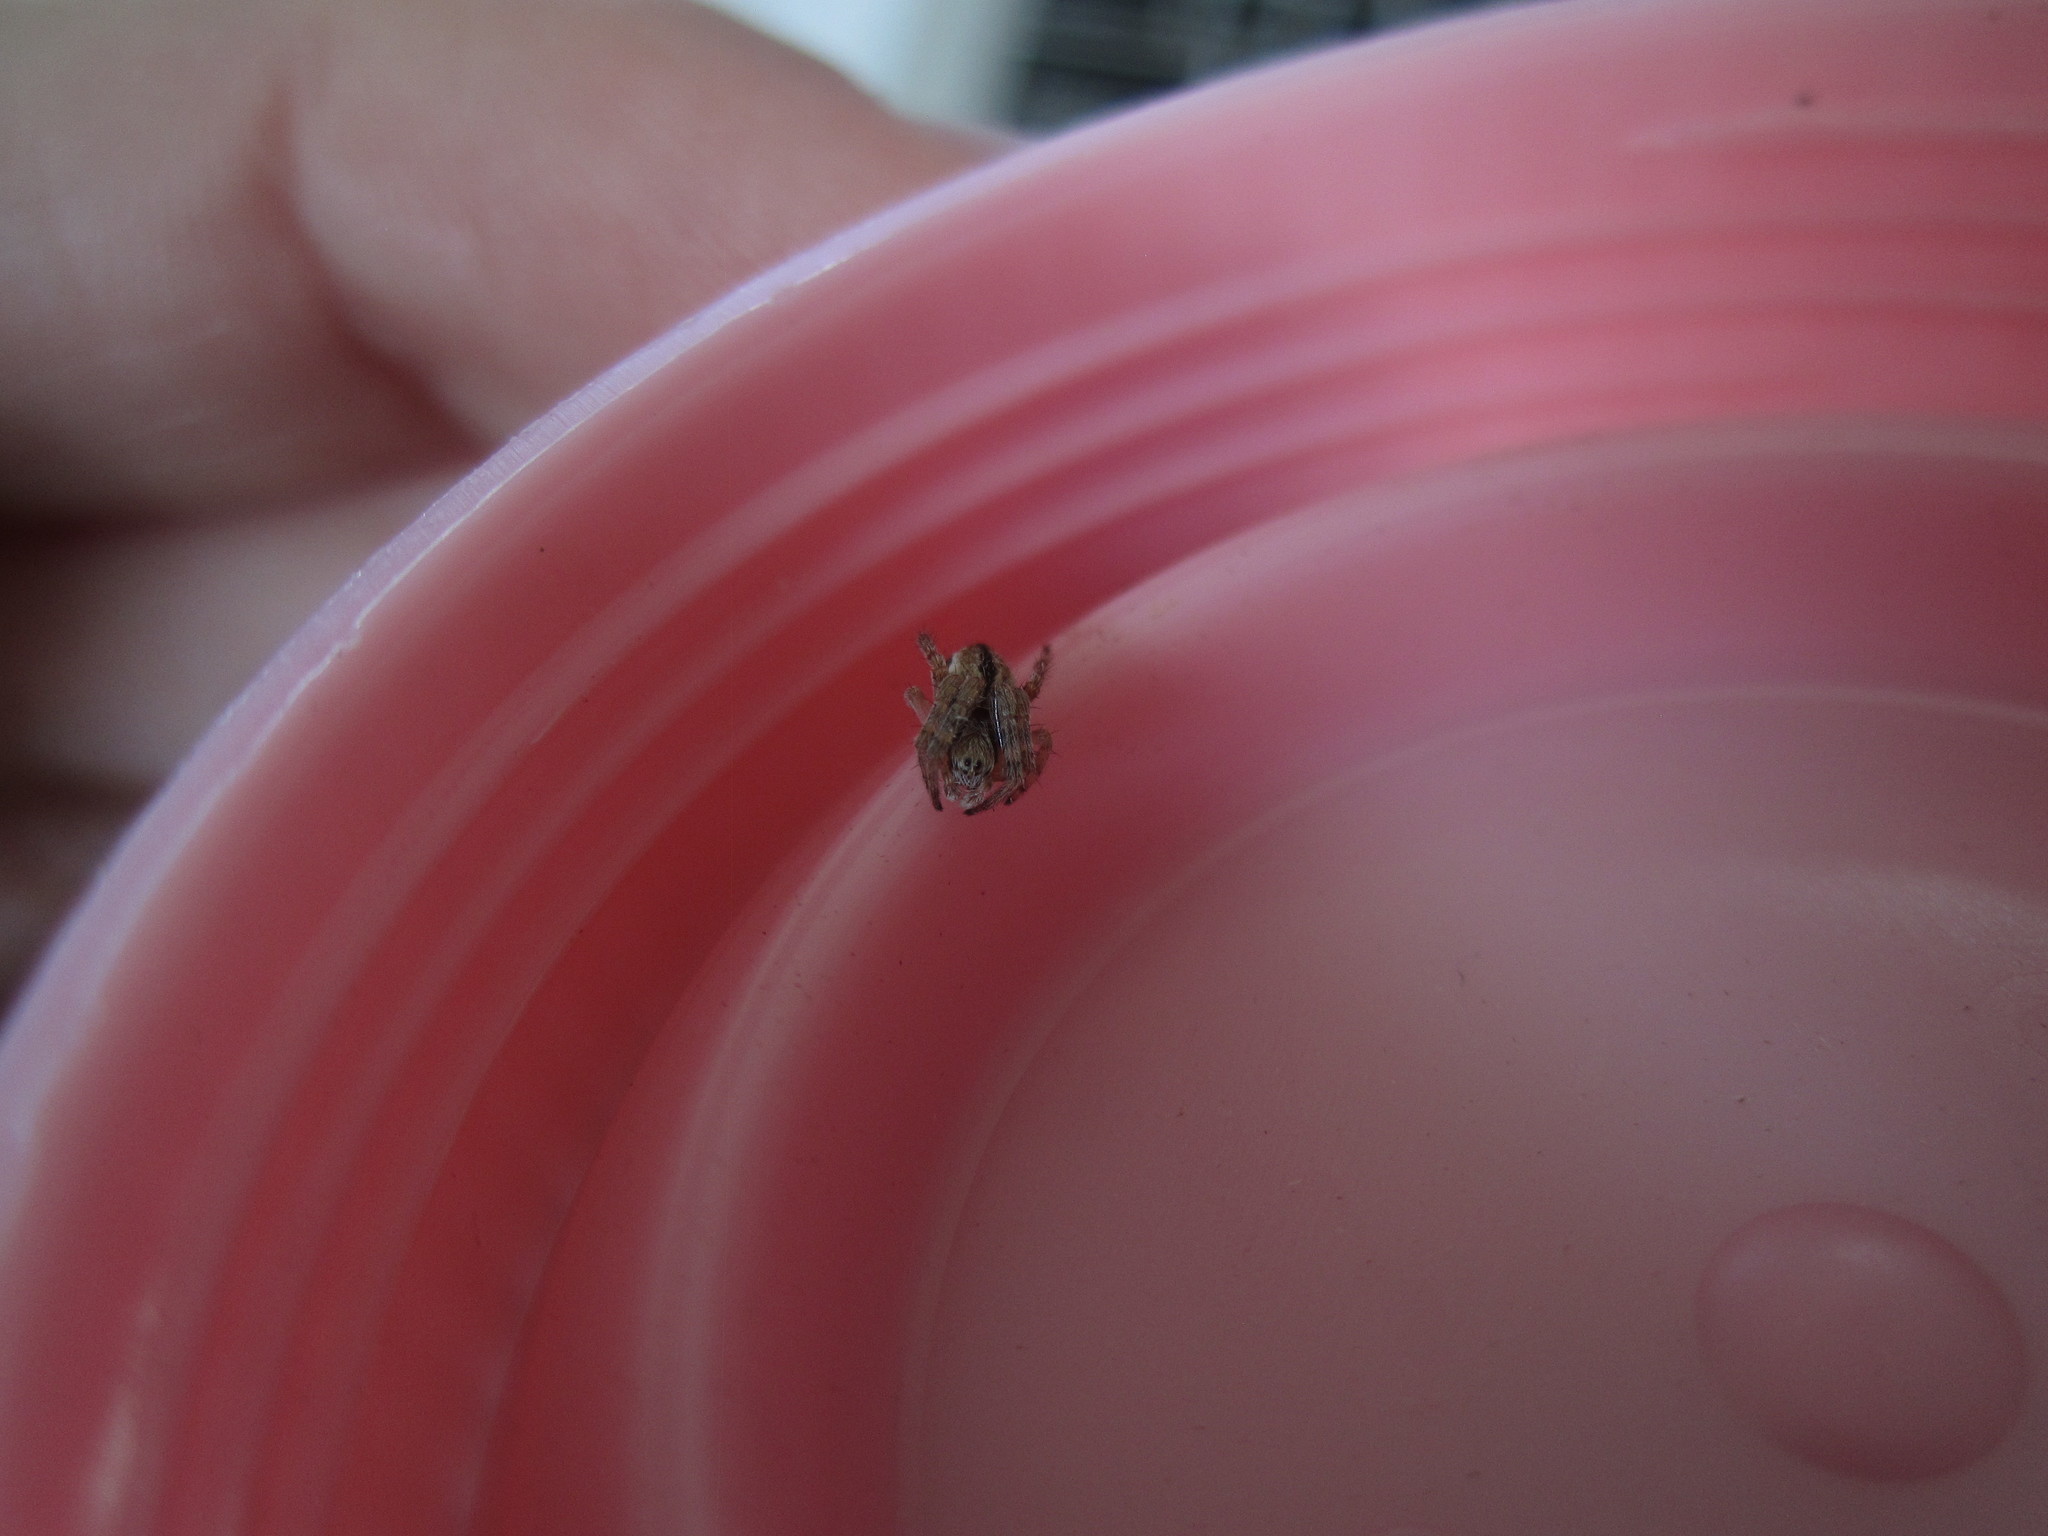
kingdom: Animalia
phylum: Arthropoda
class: Arachnida
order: Araneae
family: Araneidae
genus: Salsa
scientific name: Salsa fuliginata
